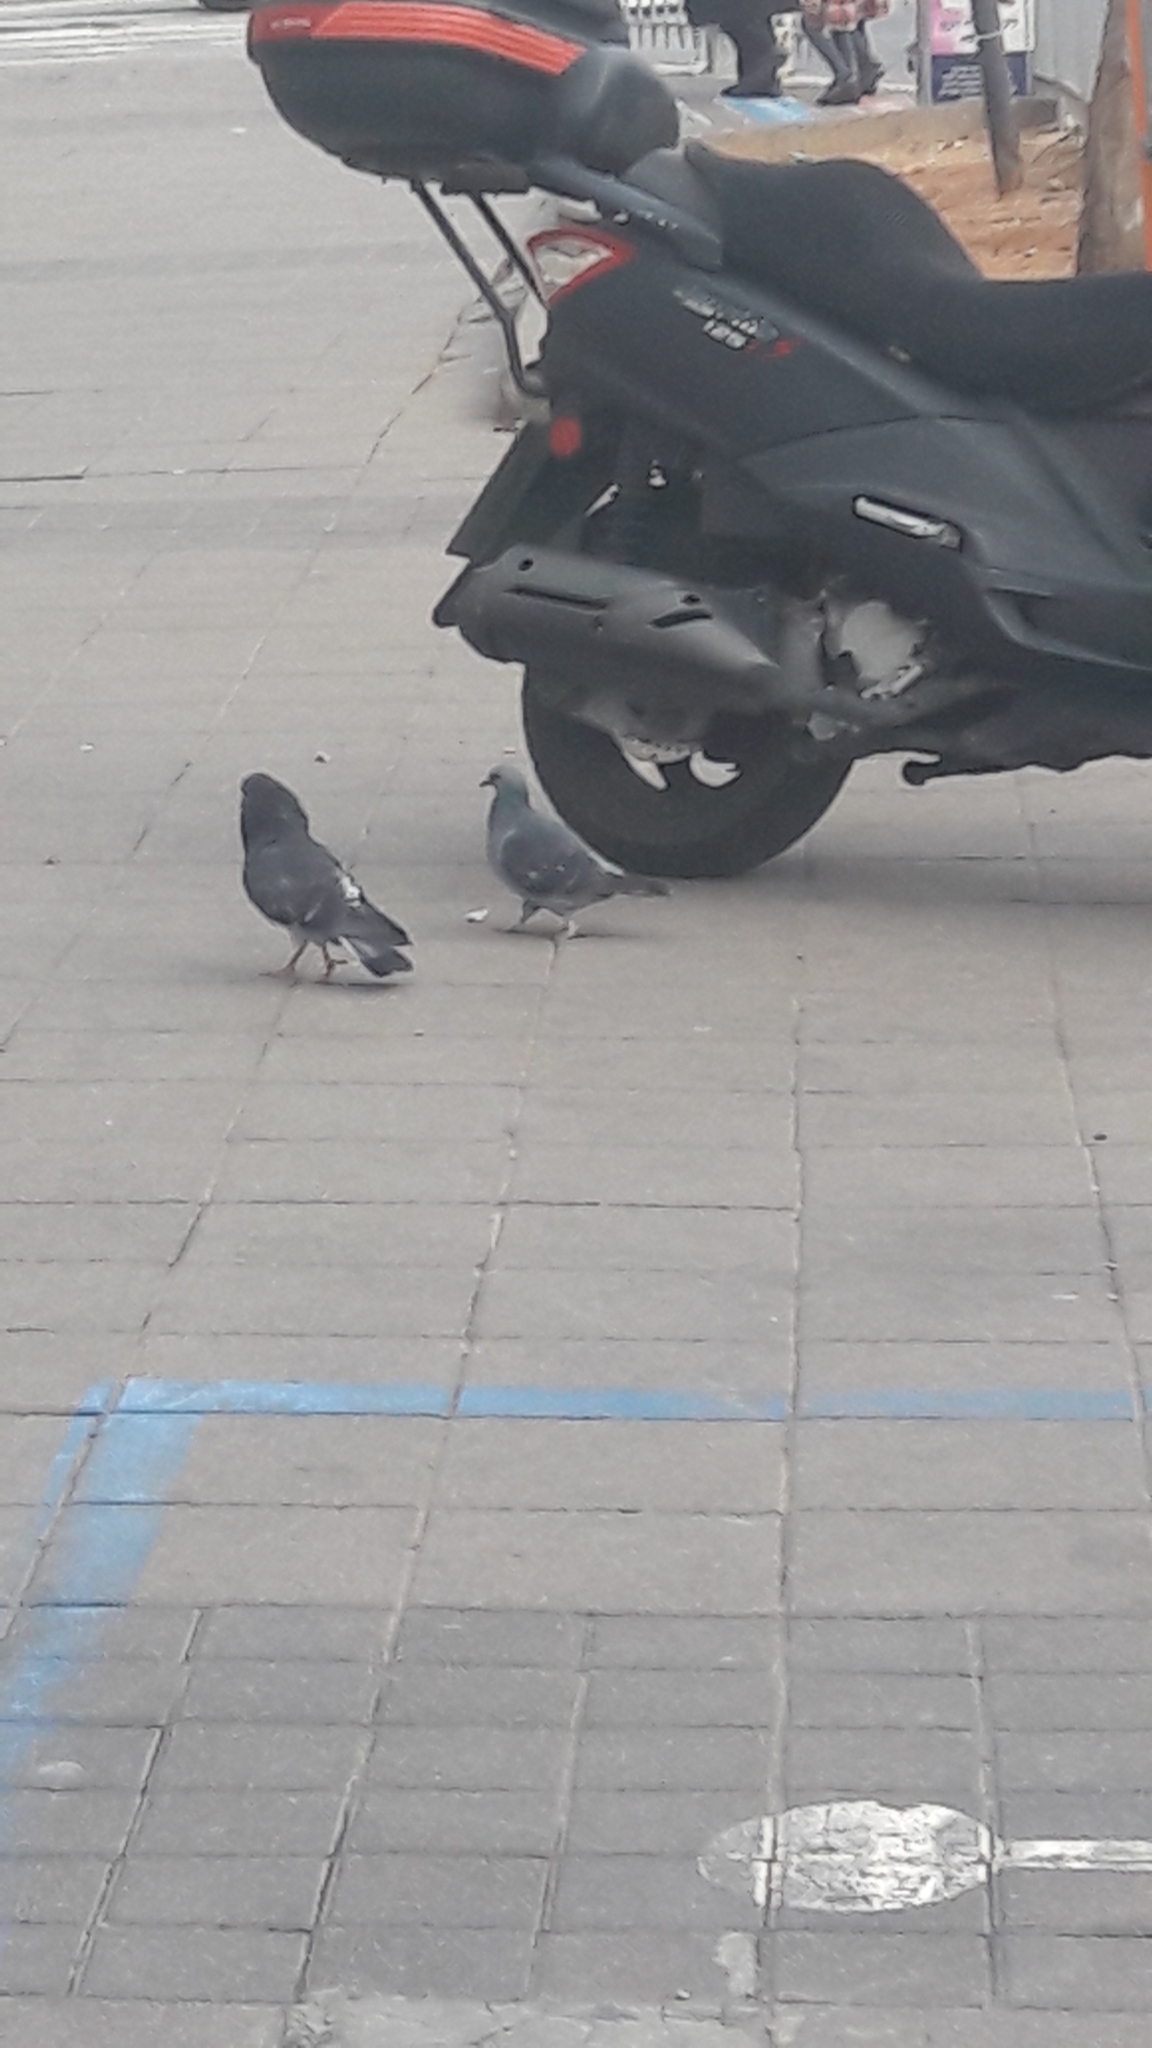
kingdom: Animalia
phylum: Chordata
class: Aves
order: Columbiformes
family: Columbidae
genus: Columba
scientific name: Columba livia
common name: Rock pigeon
